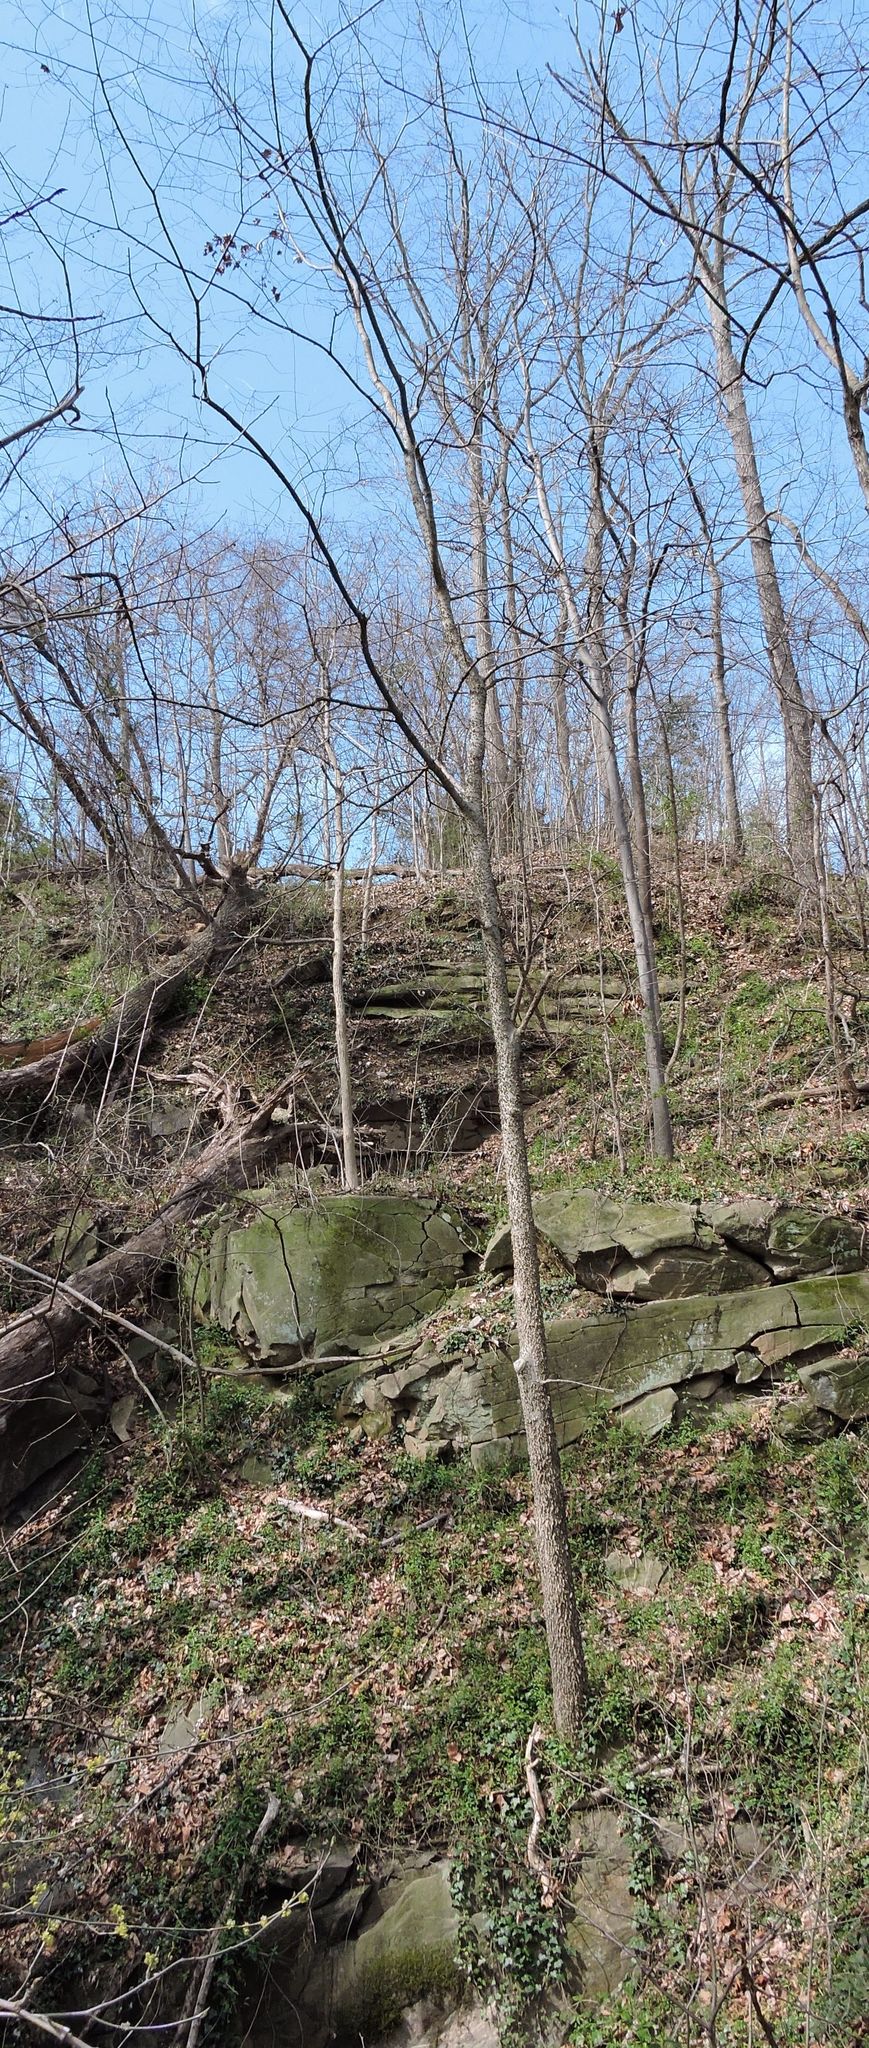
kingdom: Plantae
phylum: Tracheophyta
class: Magnoliopsida
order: Rosales
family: Cannabaceae
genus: Celtis
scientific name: Celtis occidentalis
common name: Common hackberry
